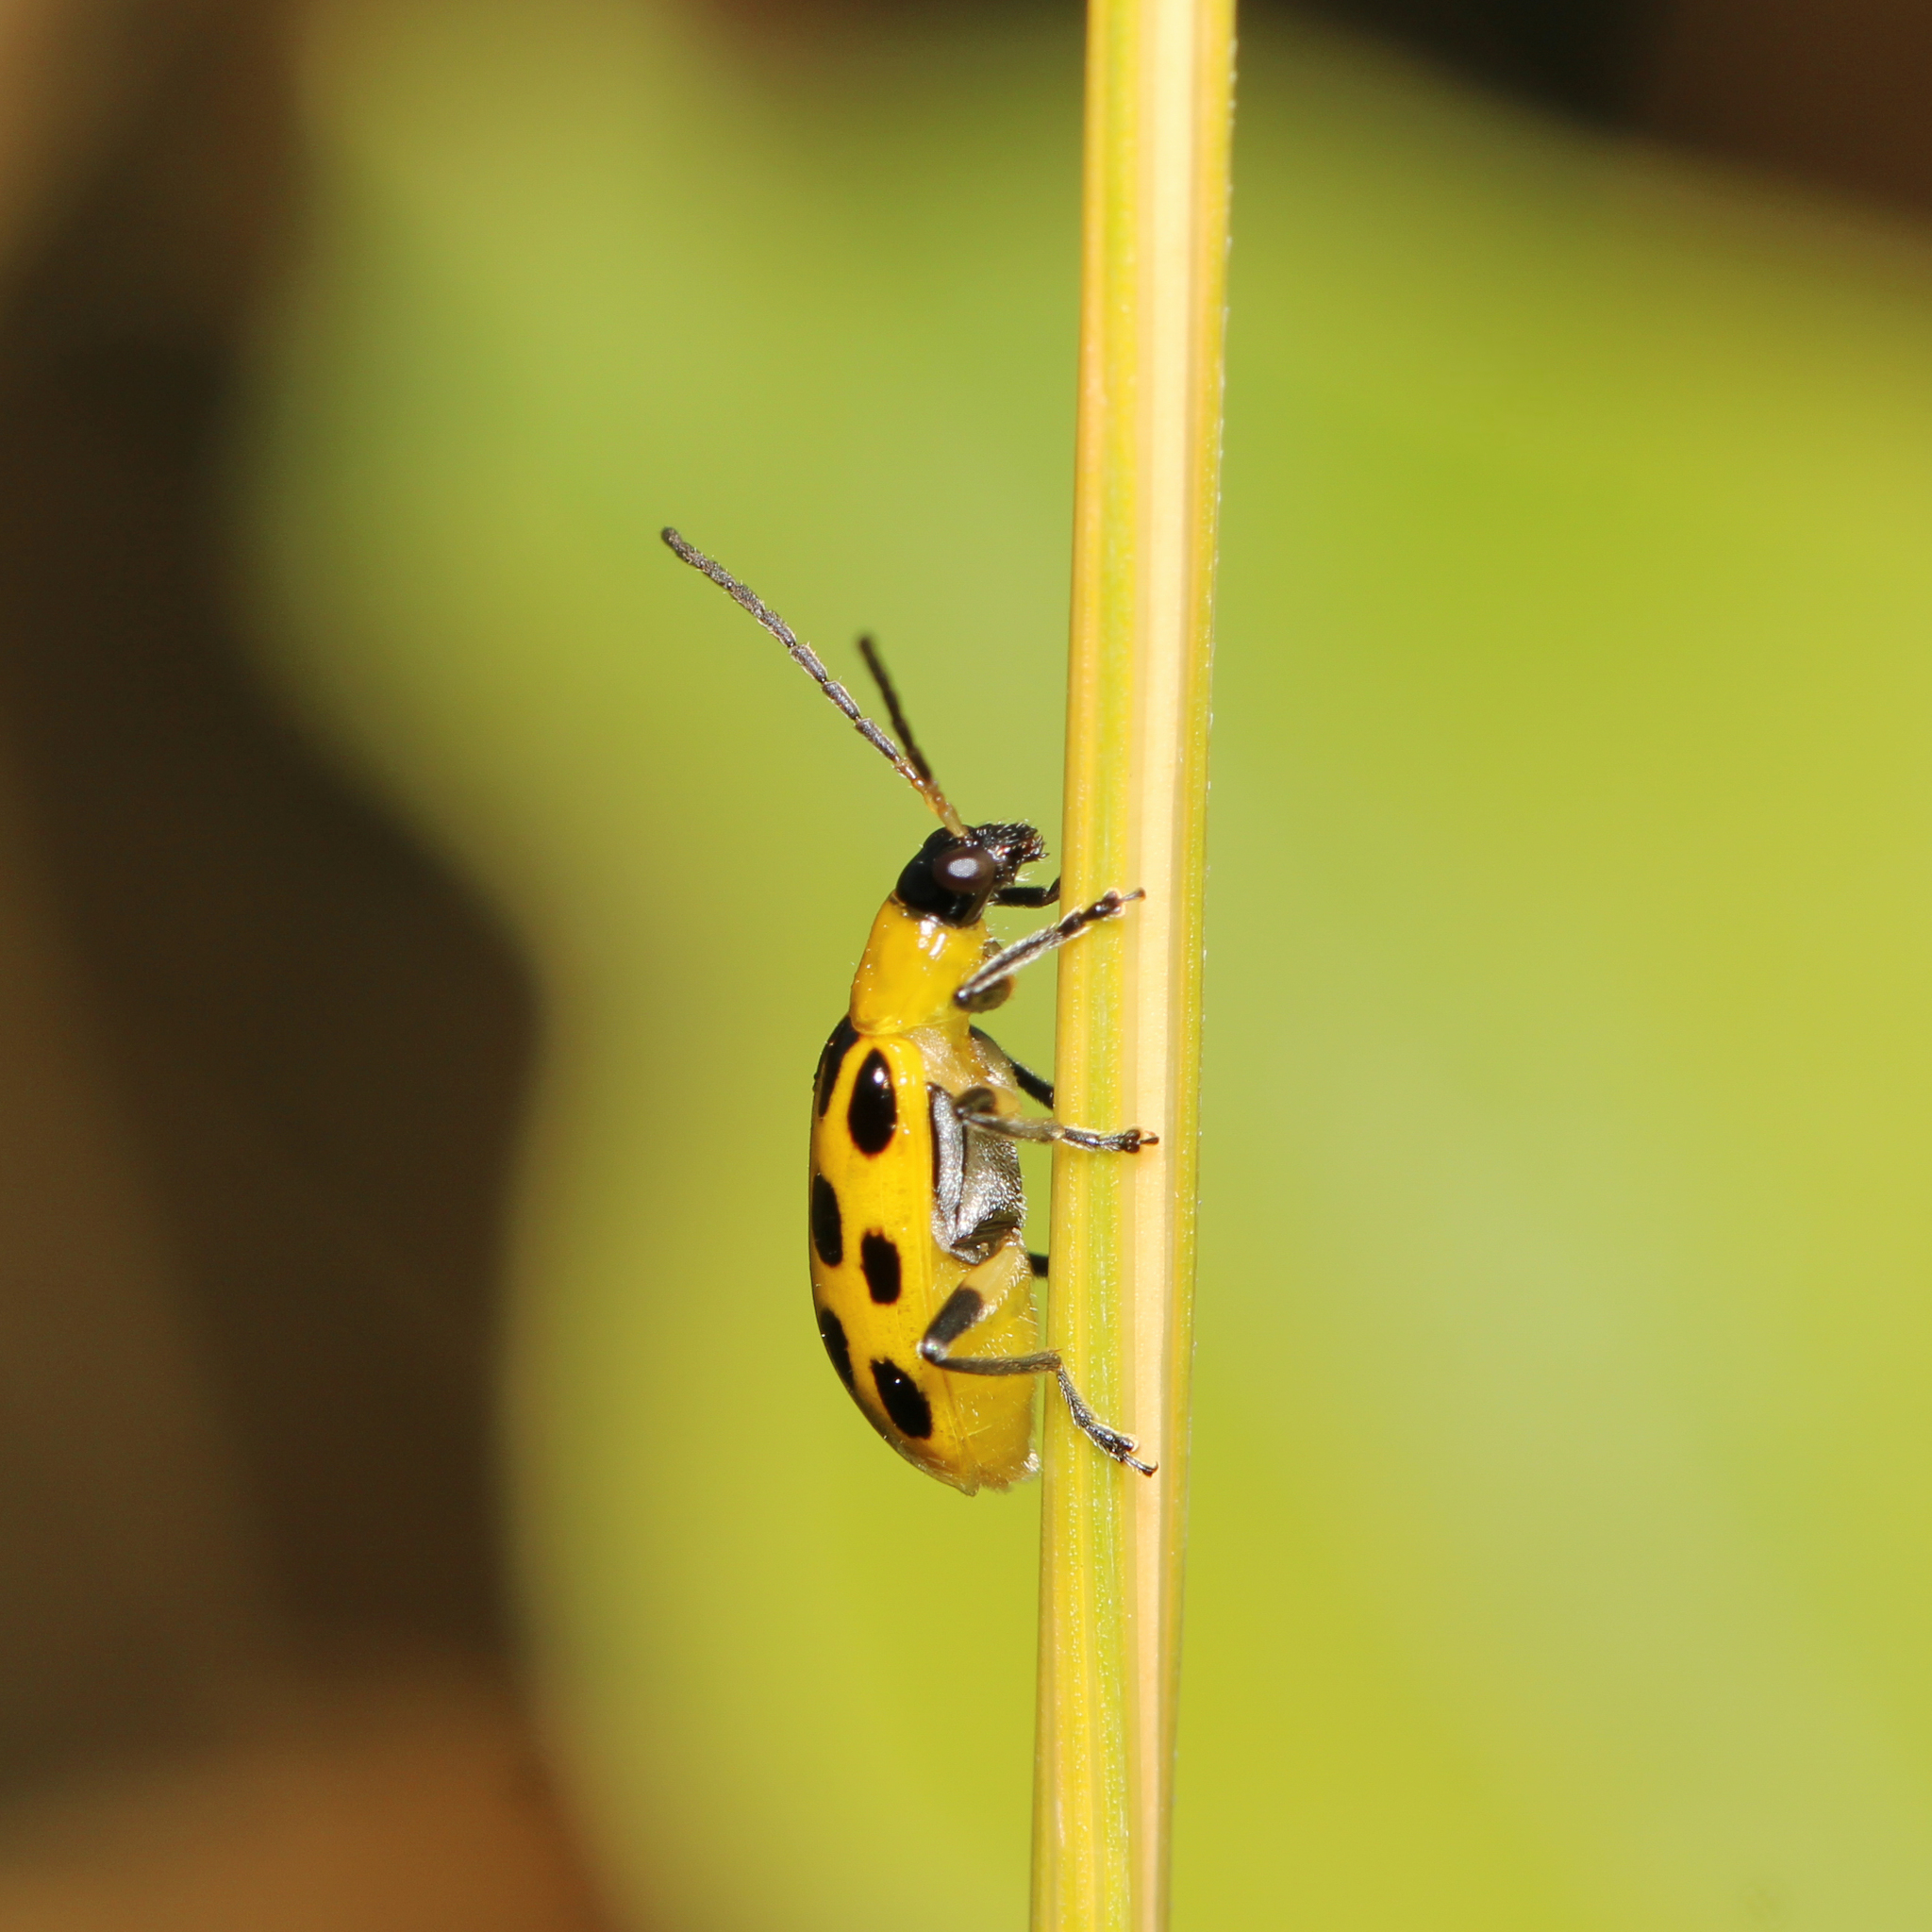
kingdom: Animalia
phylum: Arthropoda
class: Insecta
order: Coleoptera
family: Chrysomelidae
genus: Diabrotica
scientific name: Diabrotica undecimpunctata
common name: Spotted cucumber beetle
